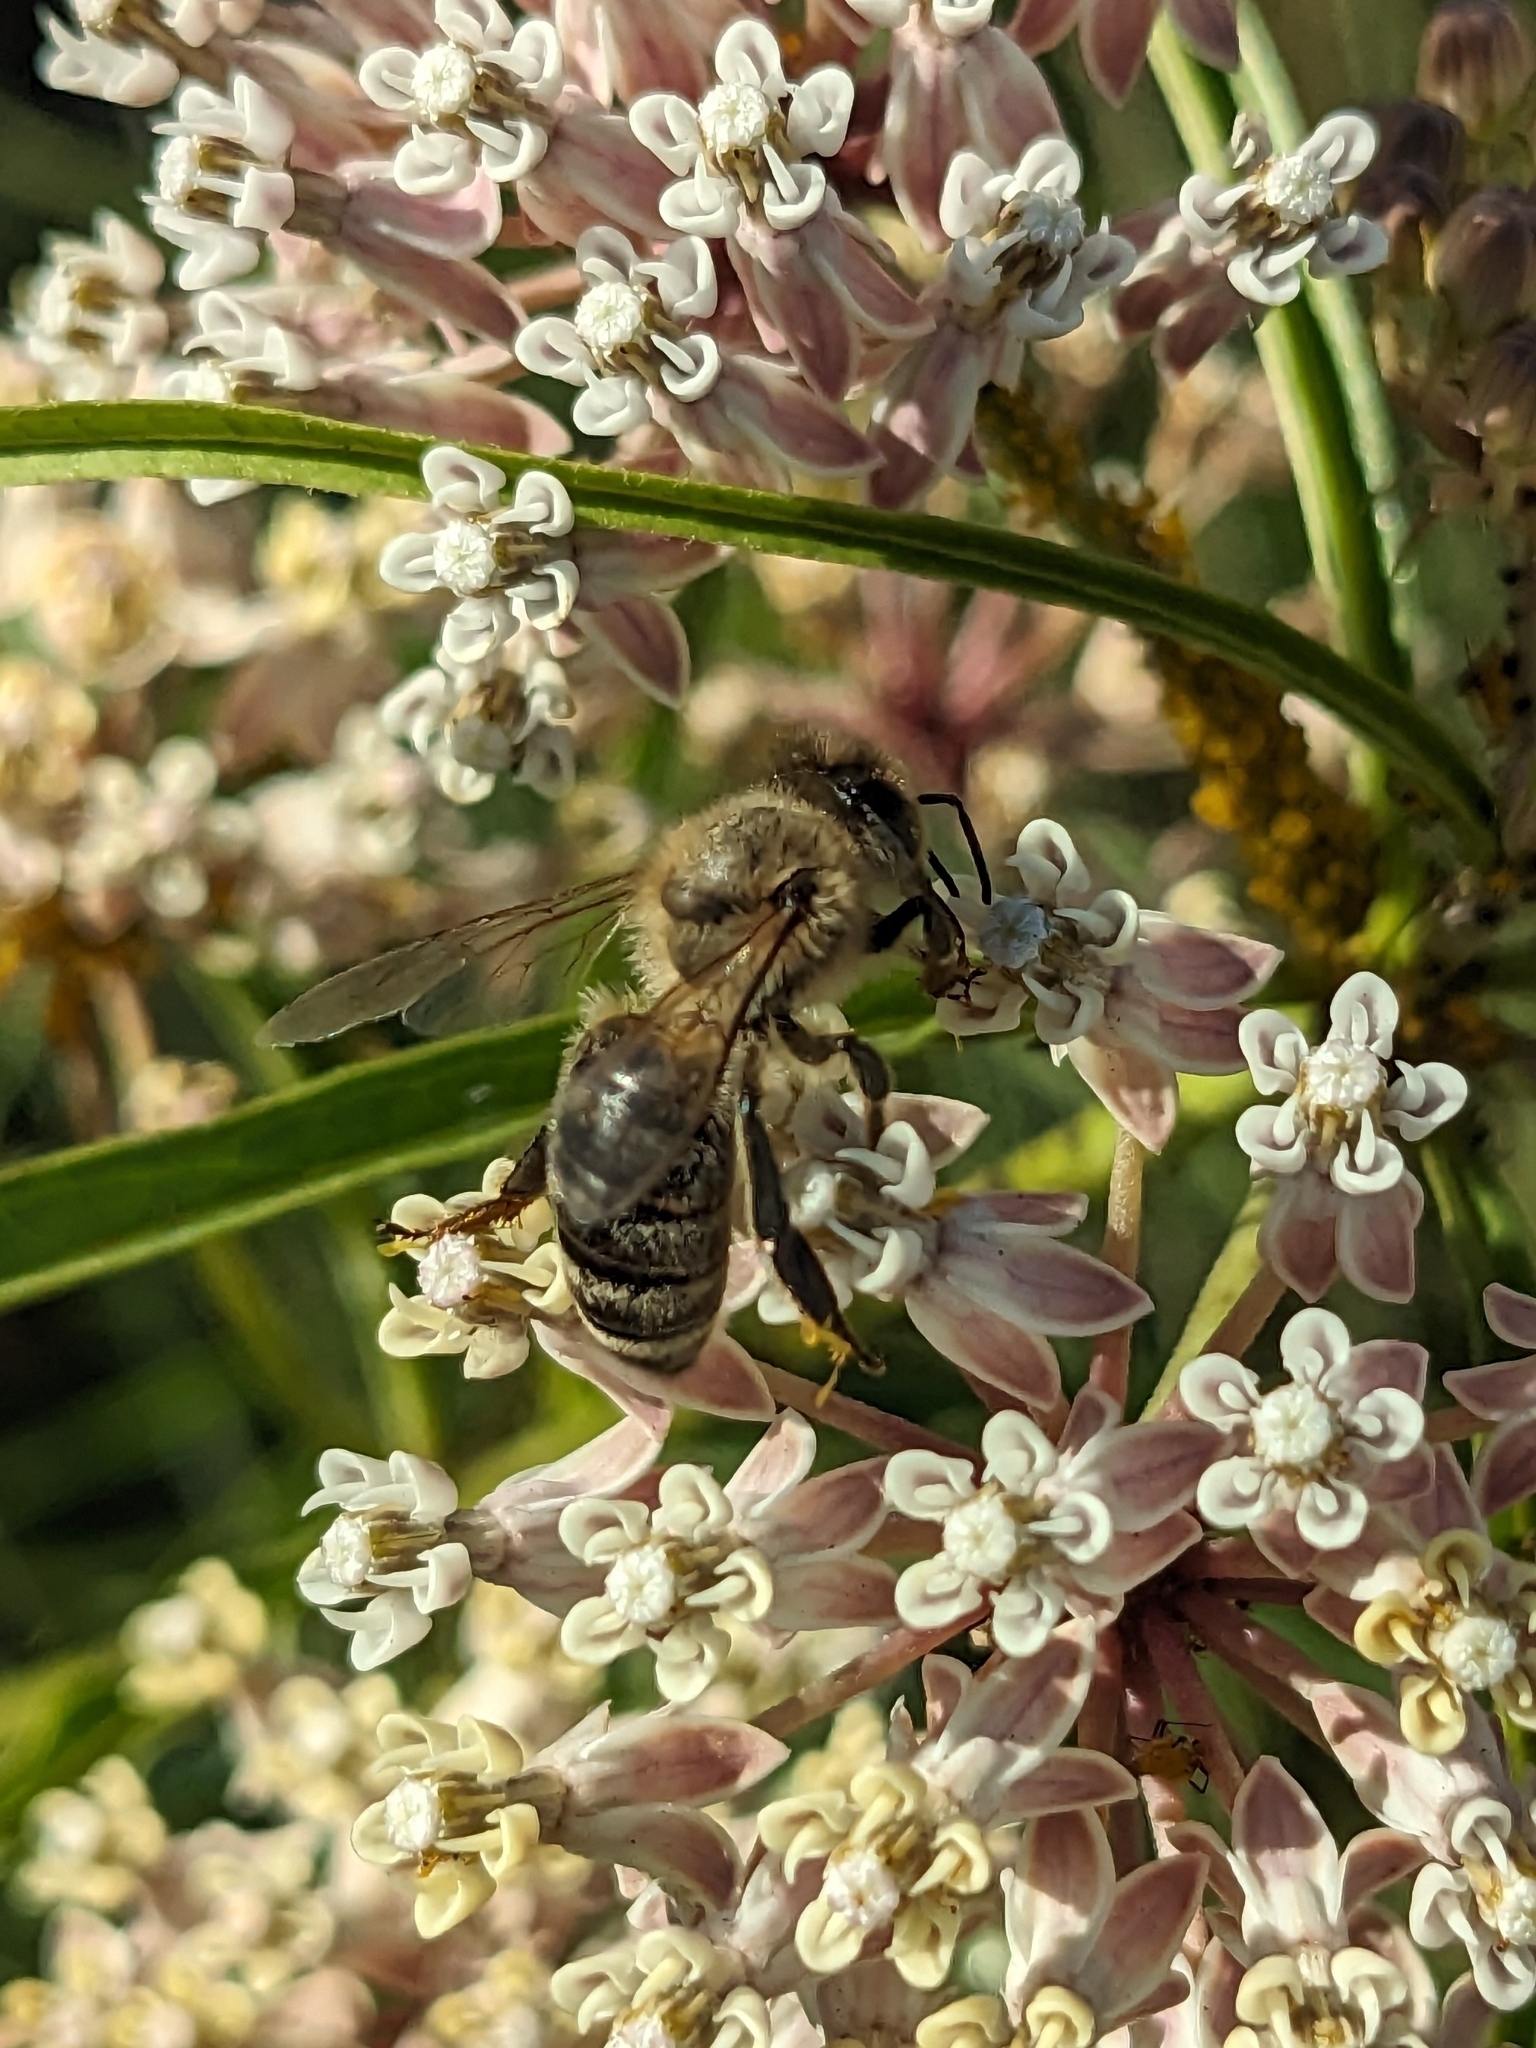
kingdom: Animalia
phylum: Arthropoda
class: Insecta
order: Hymenoptera
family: Apidae
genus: Apis
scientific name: Apis mellifera
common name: Honey bee
